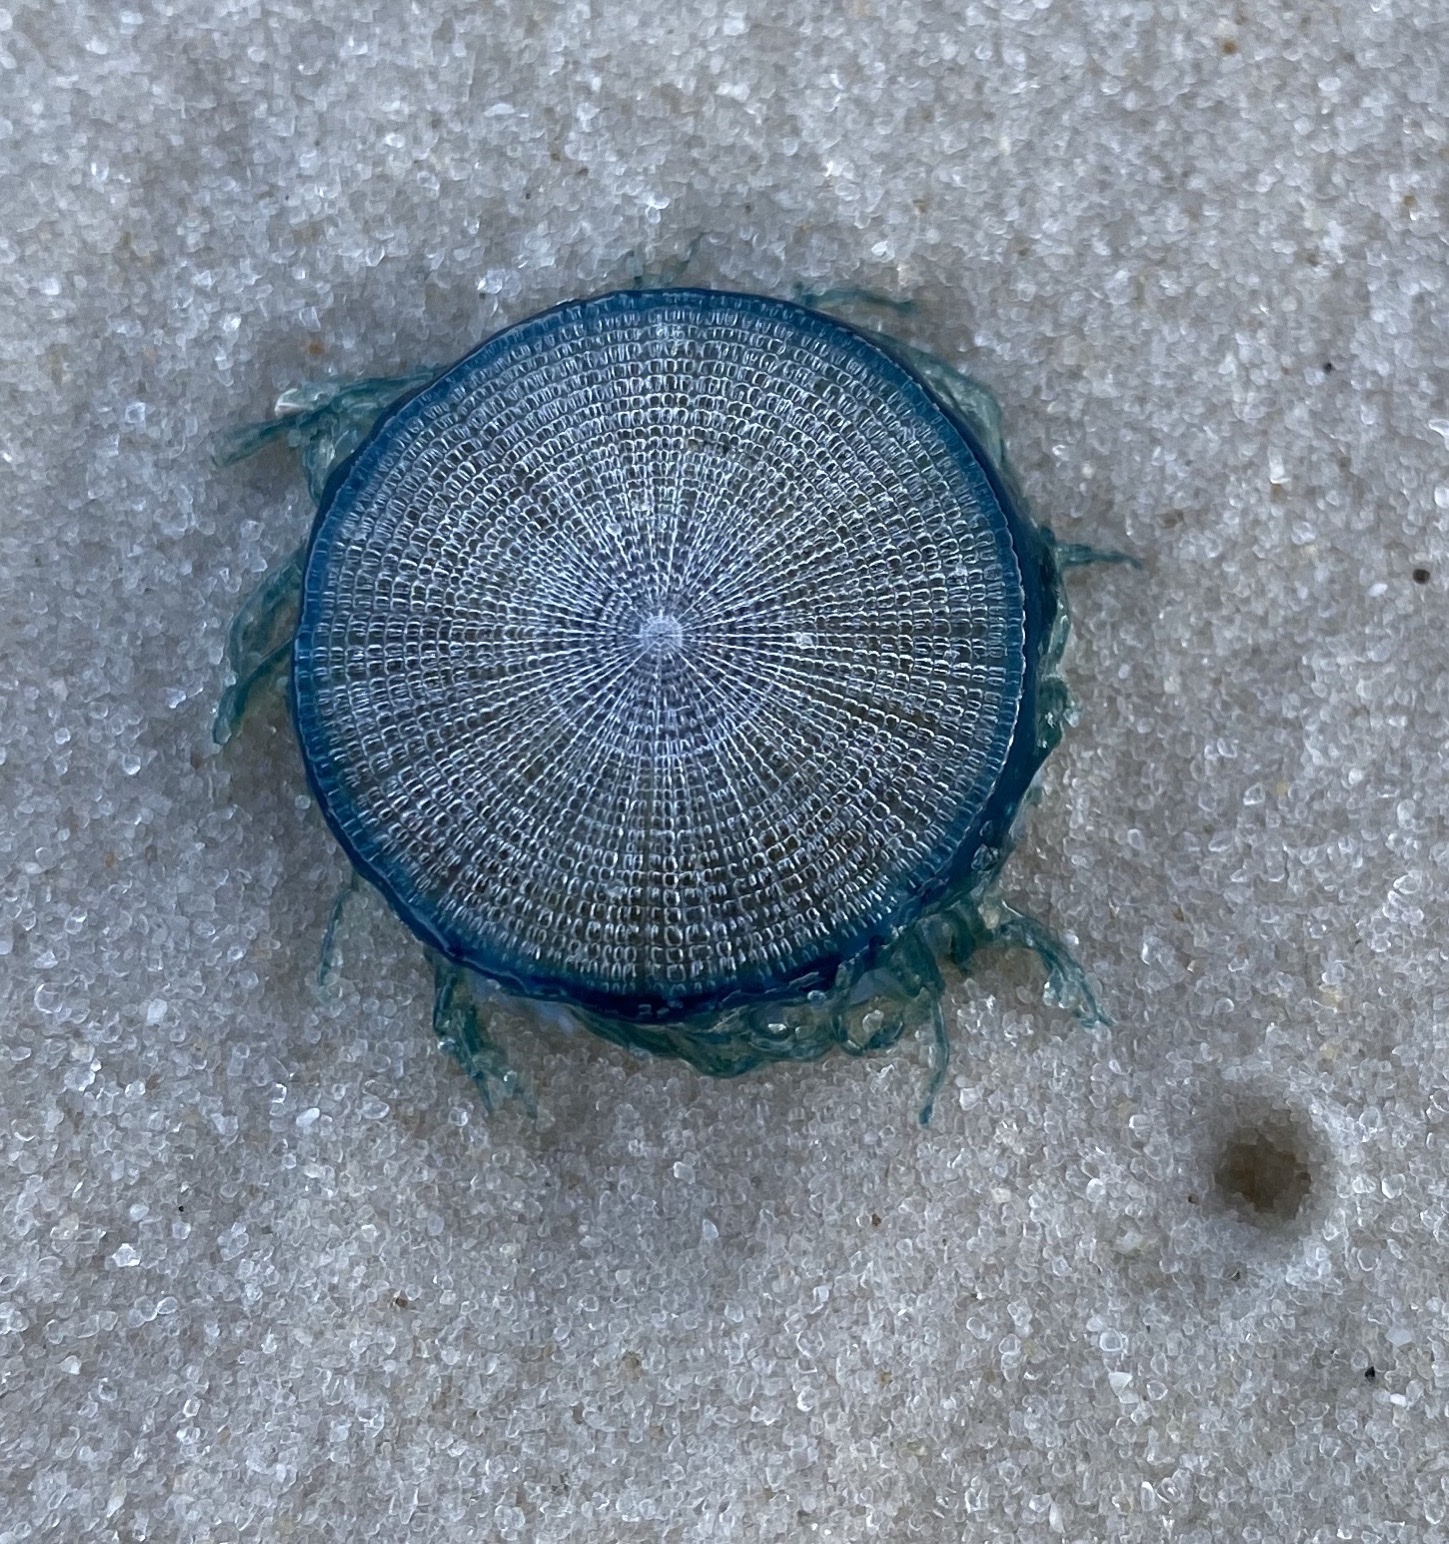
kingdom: Animalia
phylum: Cnidaria
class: Hydrozoa
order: Anthoathecata
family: Porpitidae
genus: Porpita
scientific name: Porpita porpita
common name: Blue button
